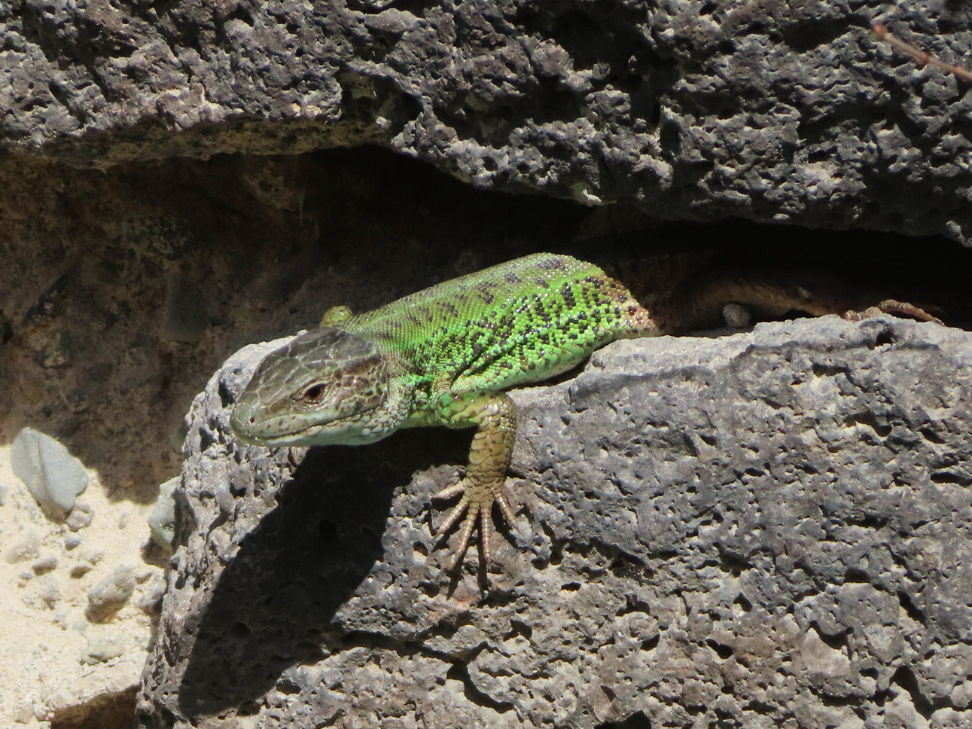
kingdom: Animalia
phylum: Chordata
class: Squamata
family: Lacertidae
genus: Lacerta
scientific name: Lacerta strigata
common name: Caspian green lizard
